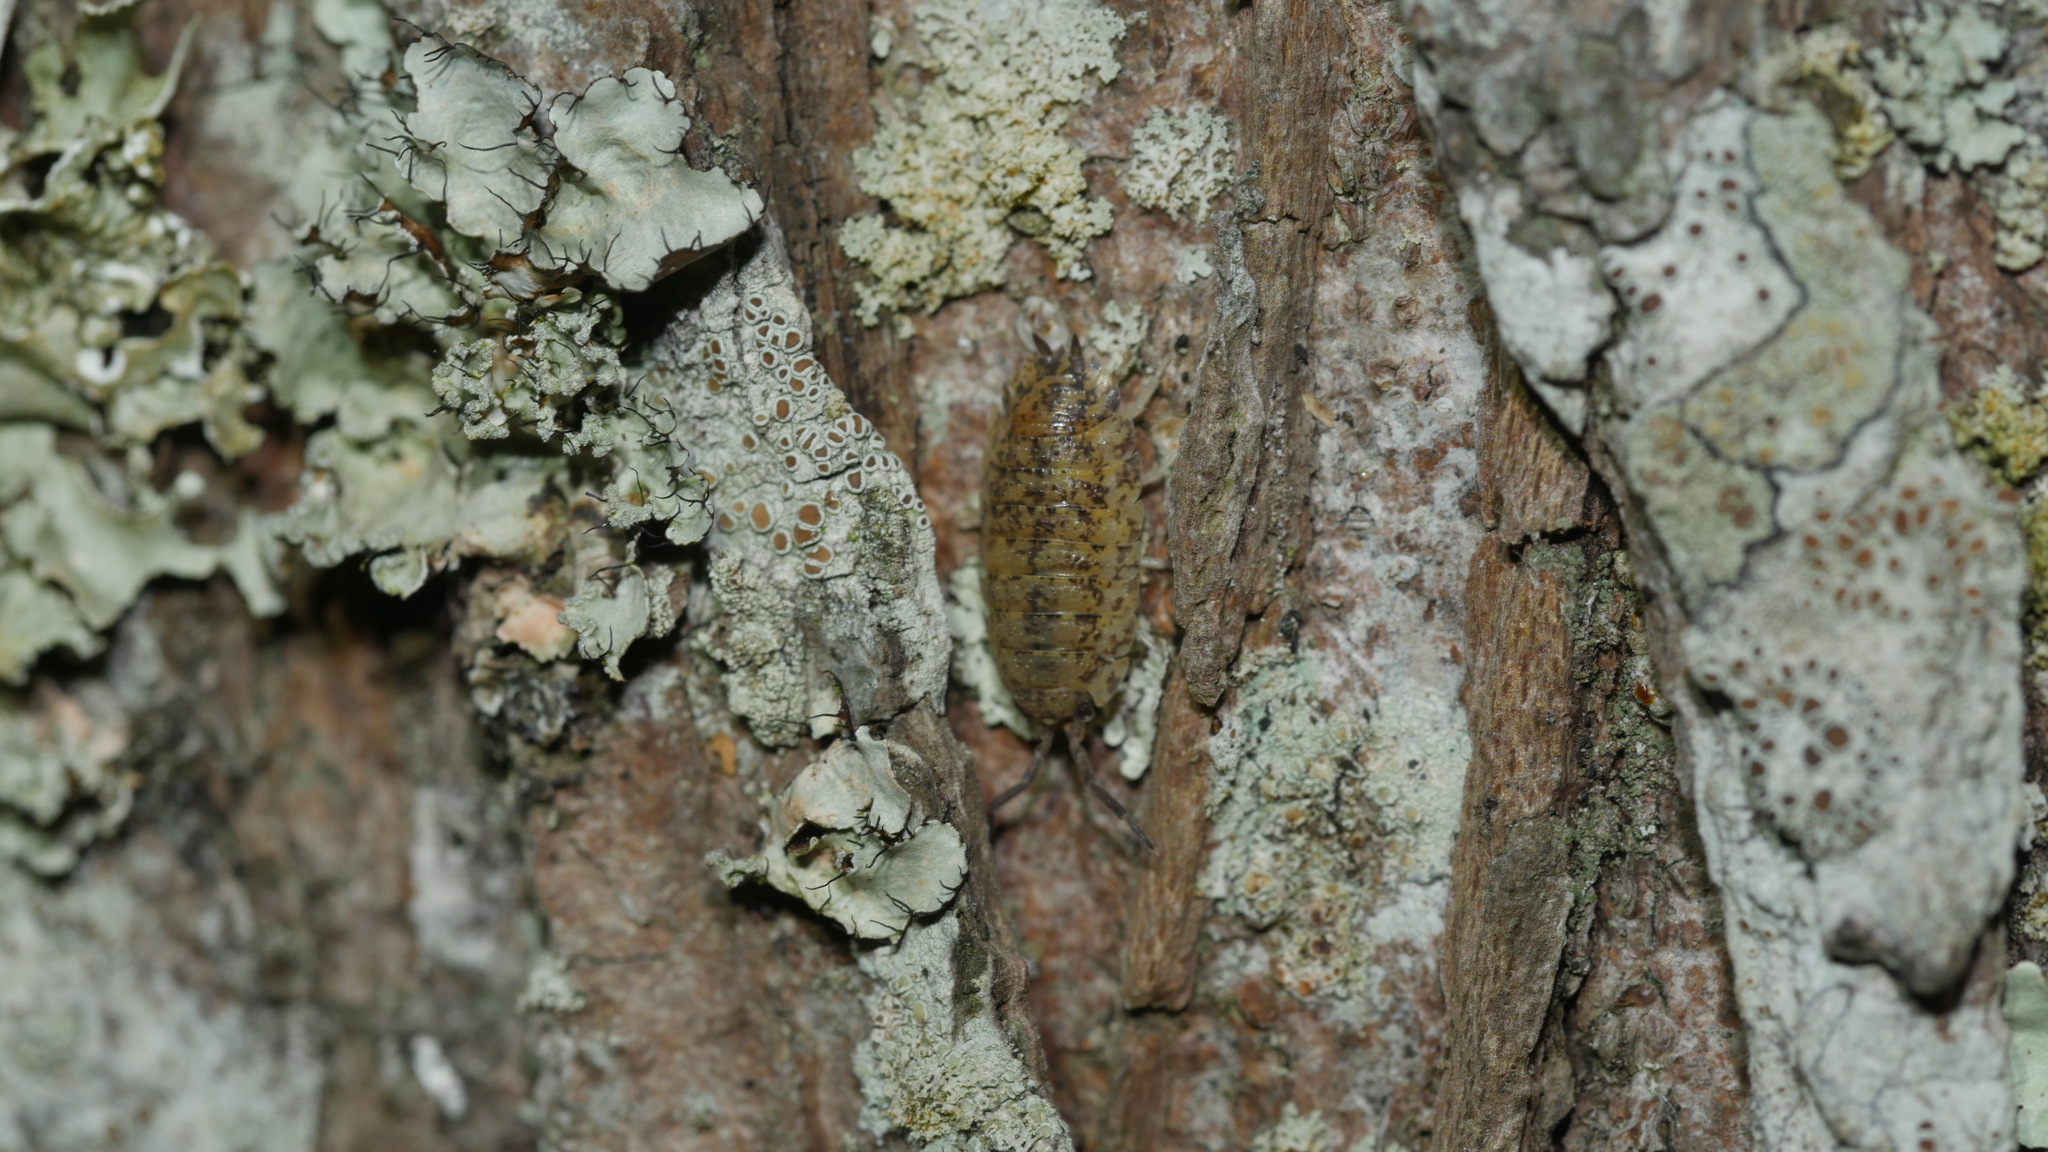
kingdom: Animalia
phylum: Arthropoda
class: Malacostraca
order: Isopoda
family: Porcellionidae
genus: Porcellio
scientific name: Porcellio scaber
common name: Common rough woodlouse
